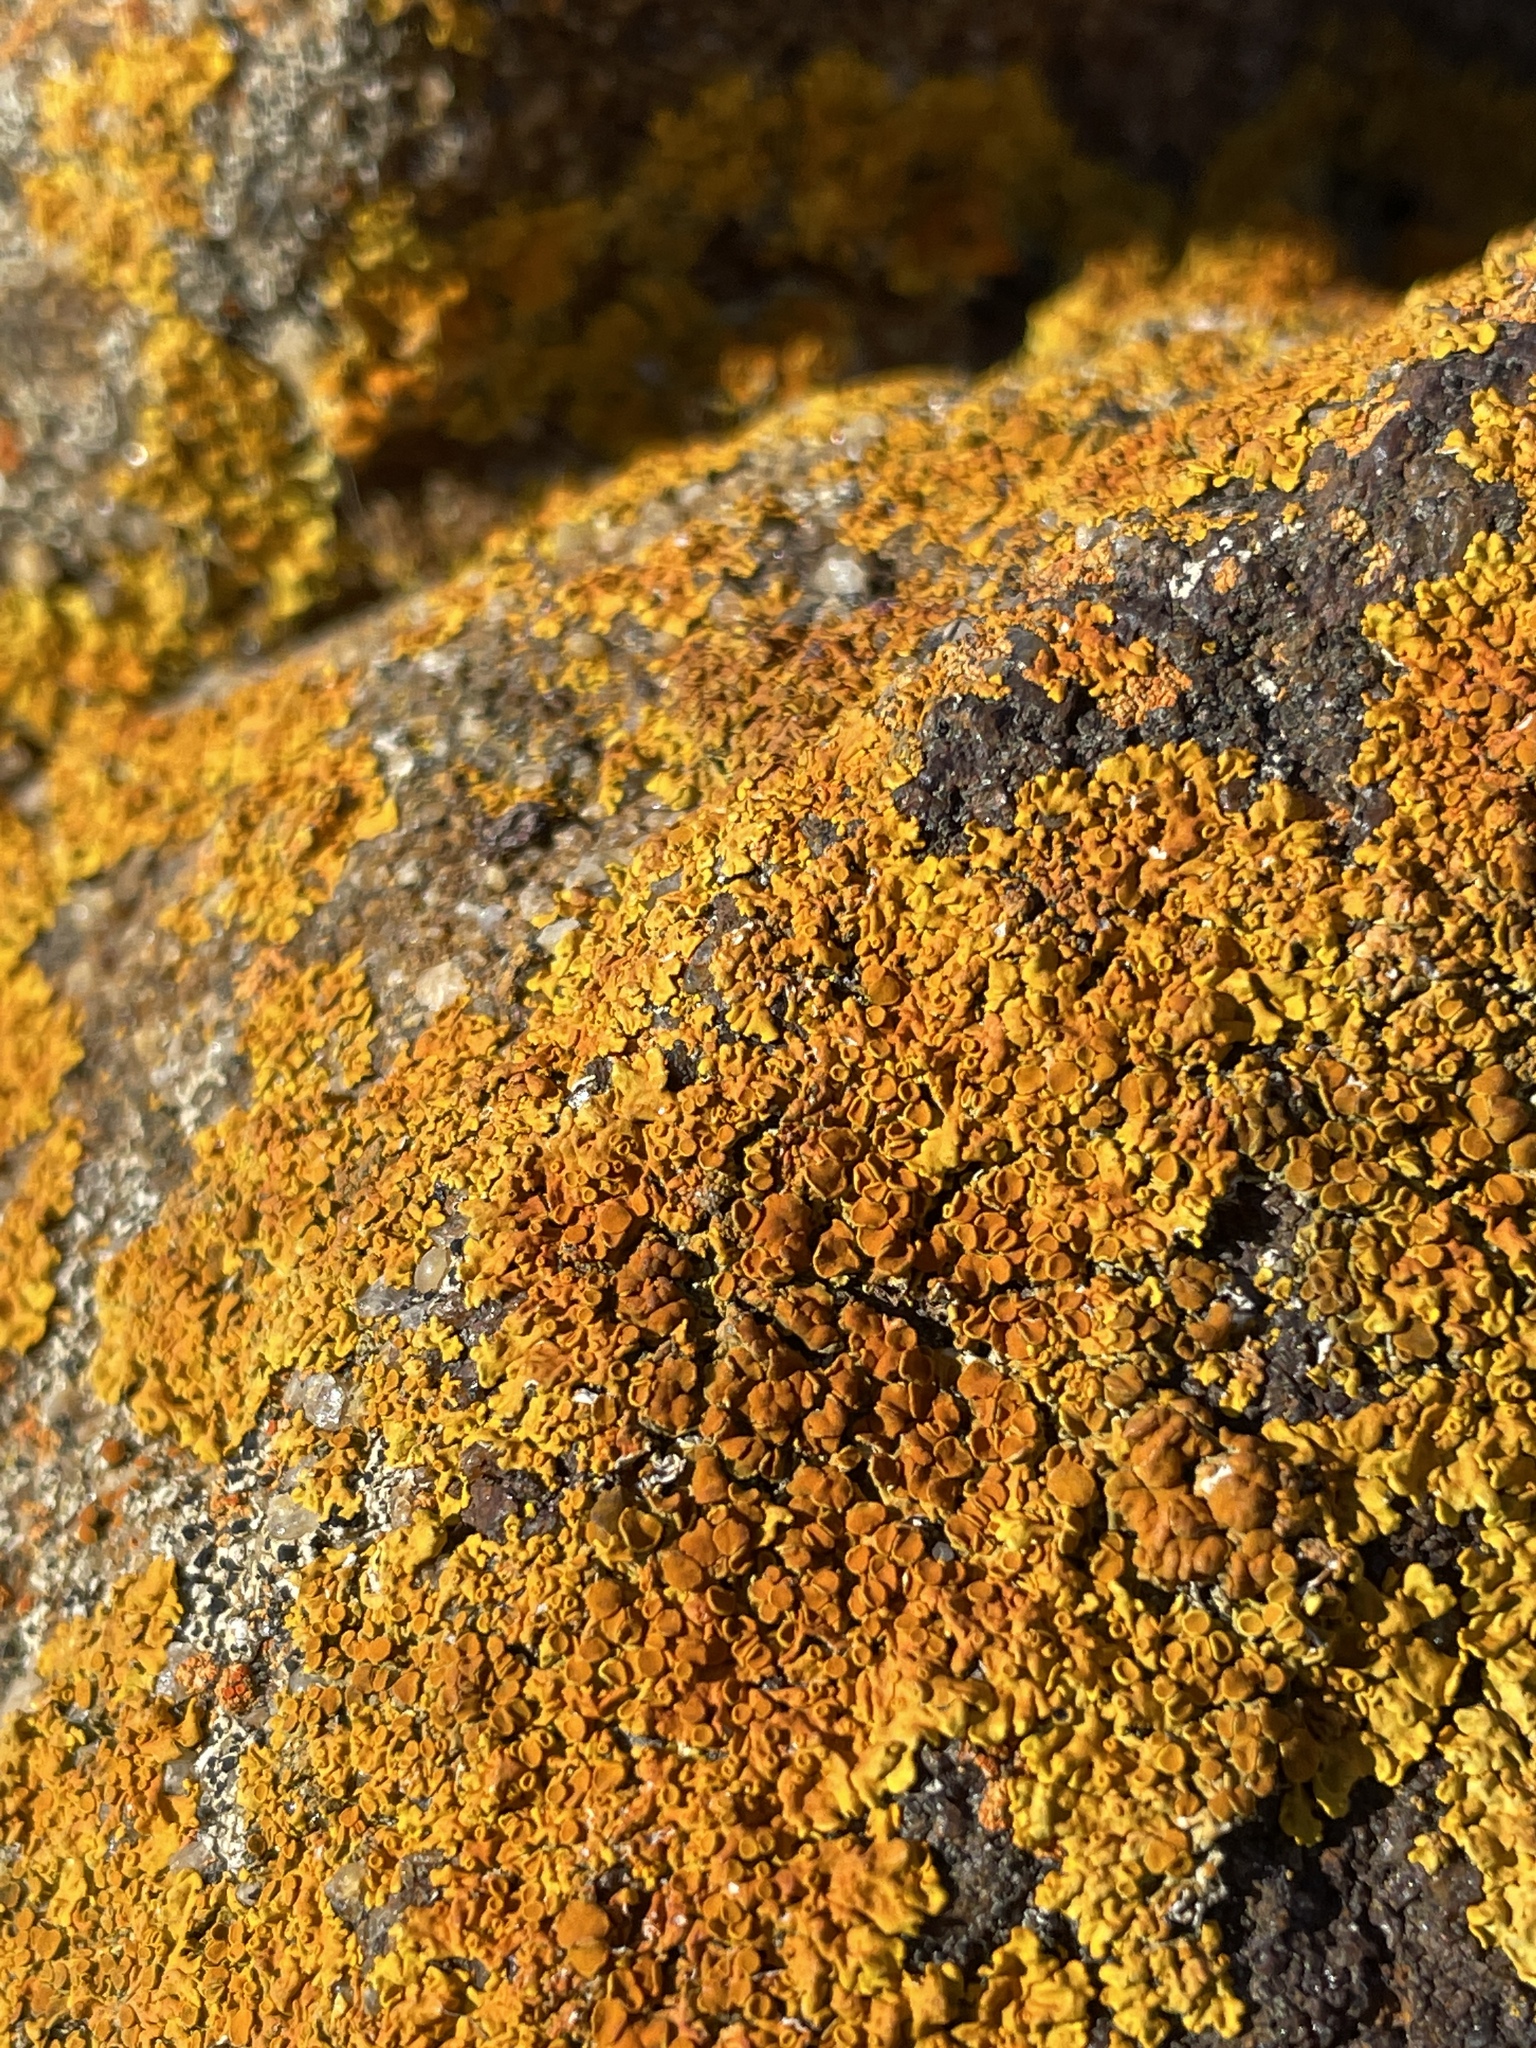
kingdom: Fungi
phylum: Ascomycota
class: Lecanoromycetes
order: Teloschistales
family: Teloschistaceae
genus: Xanthoria
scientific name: Xanthoria parietina
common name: Common orange lichen
